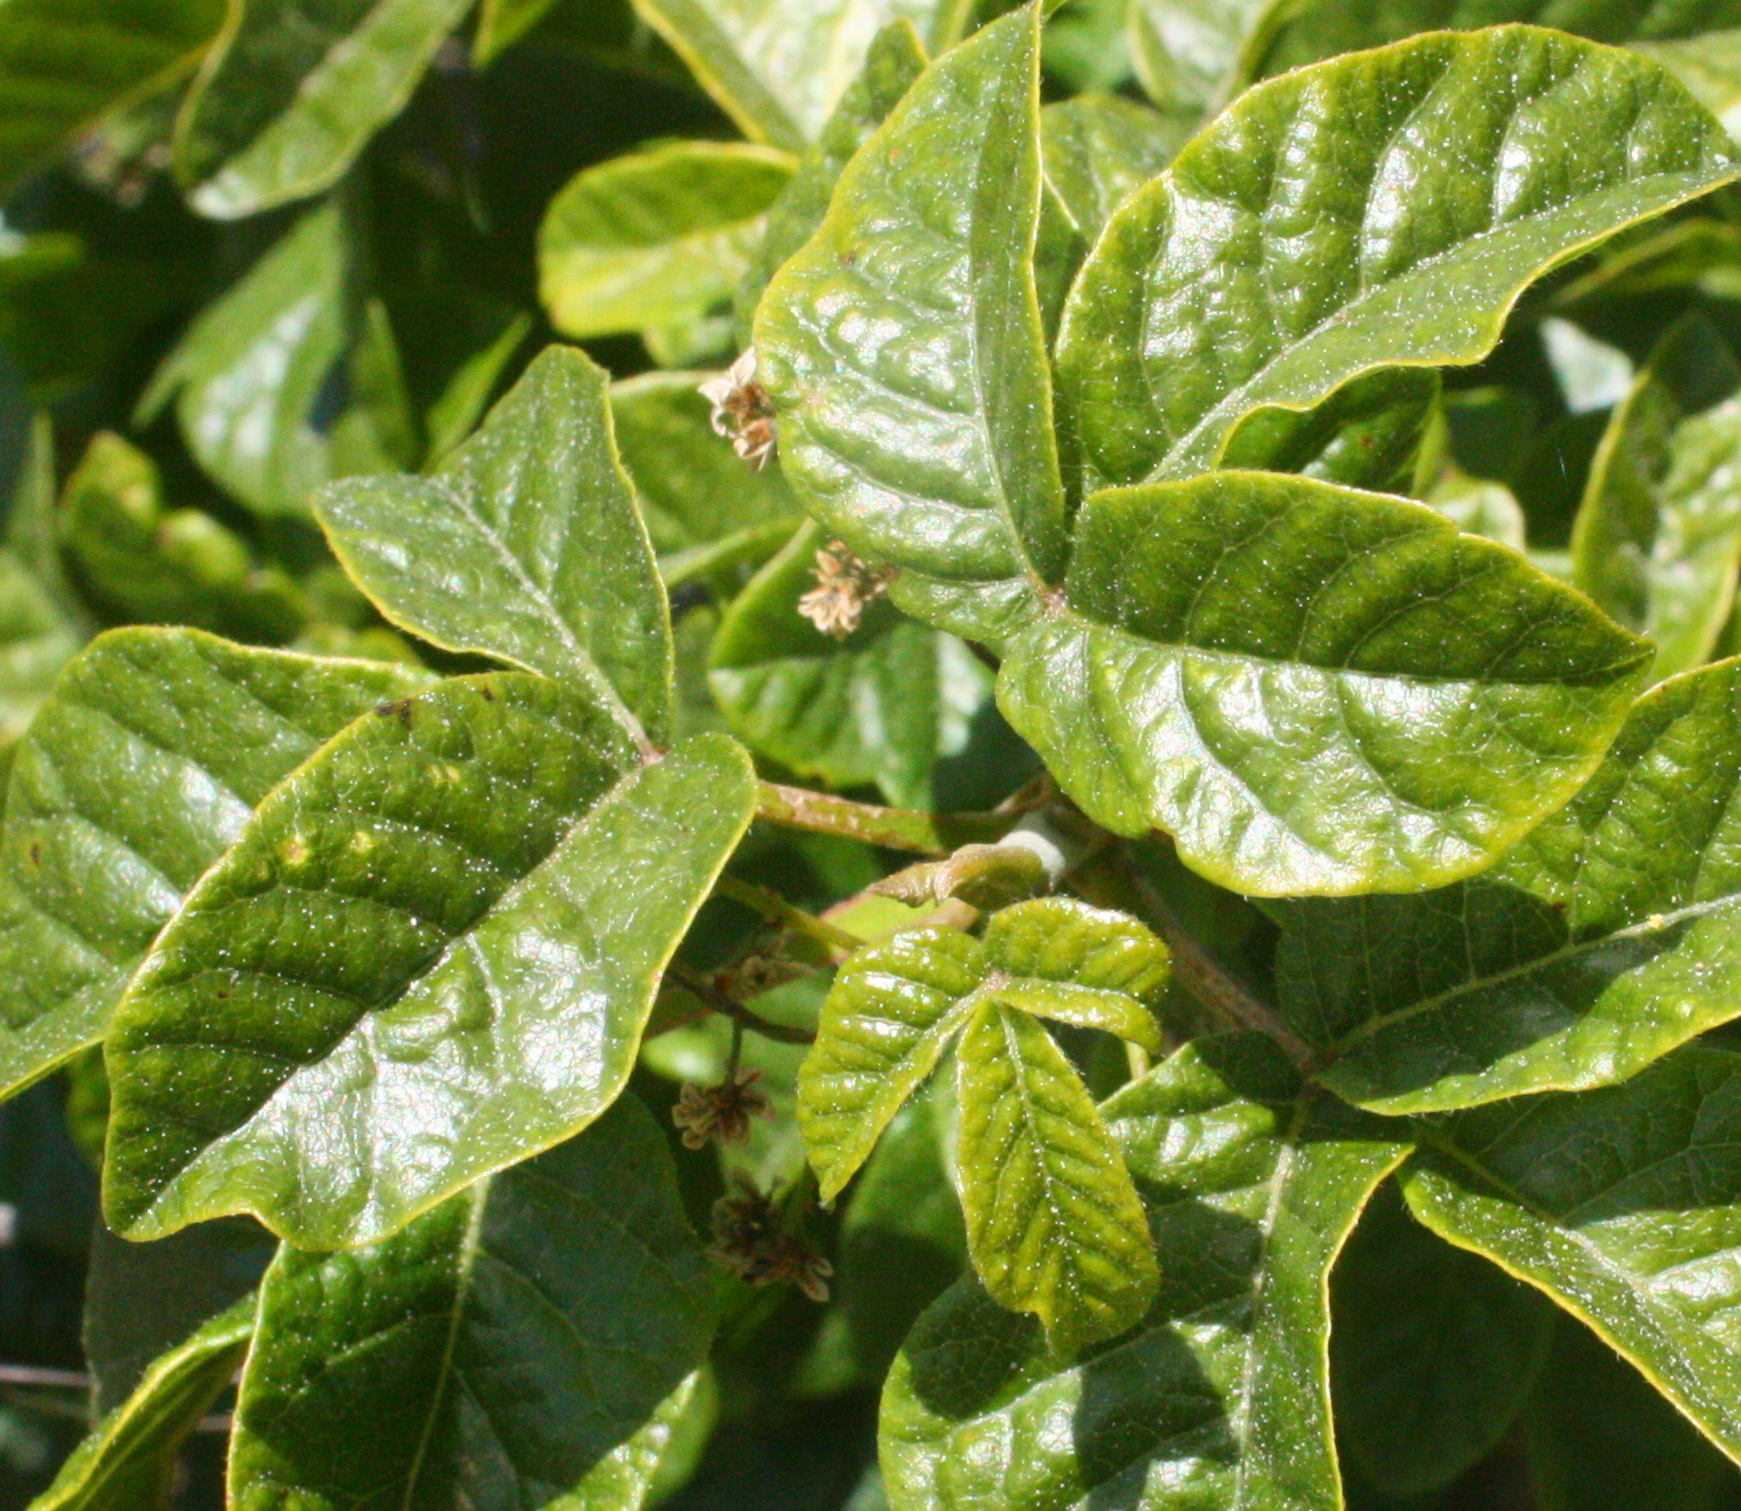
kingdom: Plantae
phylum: Tracheophyta
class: Magnoliopsida
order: Sapindales
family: Anacardiaceae
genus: Toxicodendron
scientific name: Toxicodendron diversilobum
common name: Pacific poison-oak
